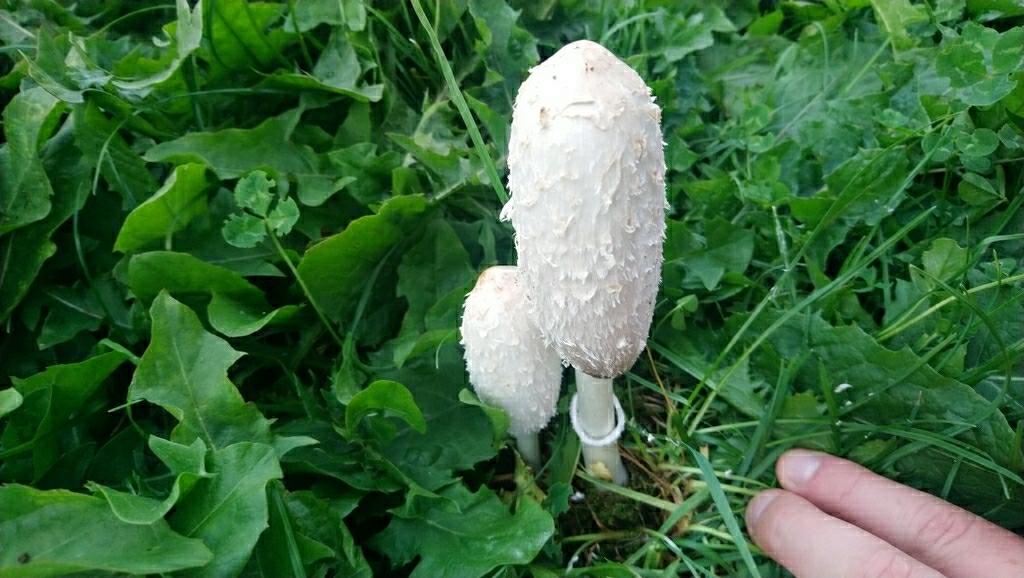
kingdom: Fungi
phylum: Basidiomycota
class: Agaricomycetes
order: Agaricales
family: Agaricaceae
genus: Coprinus
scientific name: Coprinus comatus
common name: Lawyer's wig
